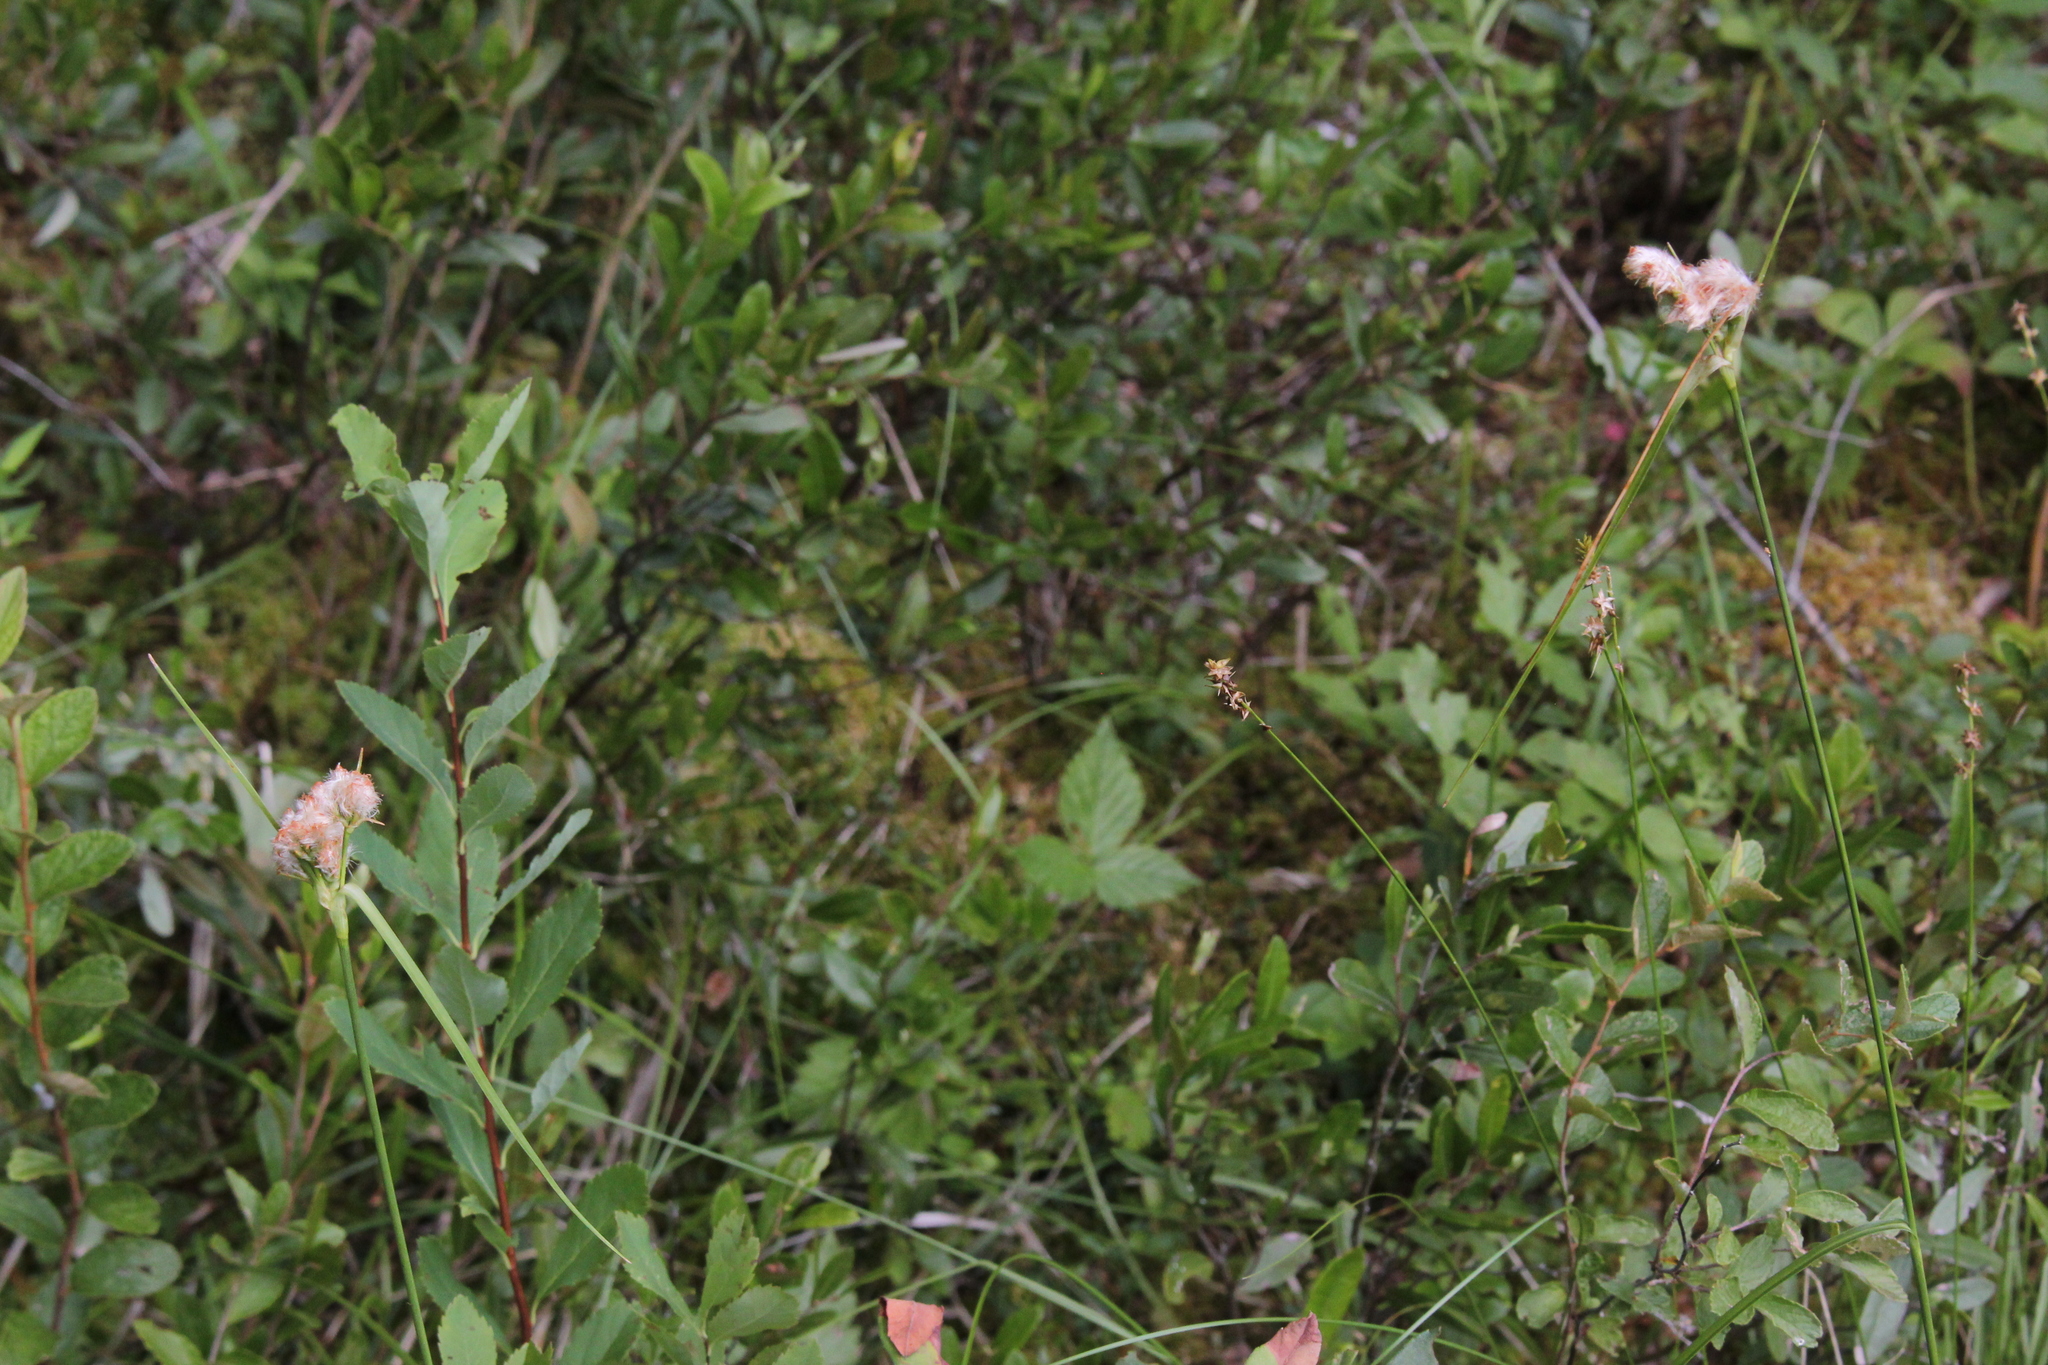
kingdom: Plantae
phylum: Tracheophyta
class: Liliopsida
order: Poales
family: Cyperaceae
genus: Eriophorum
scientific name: Eriophorum virginicum
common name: Tawny cottongrass
